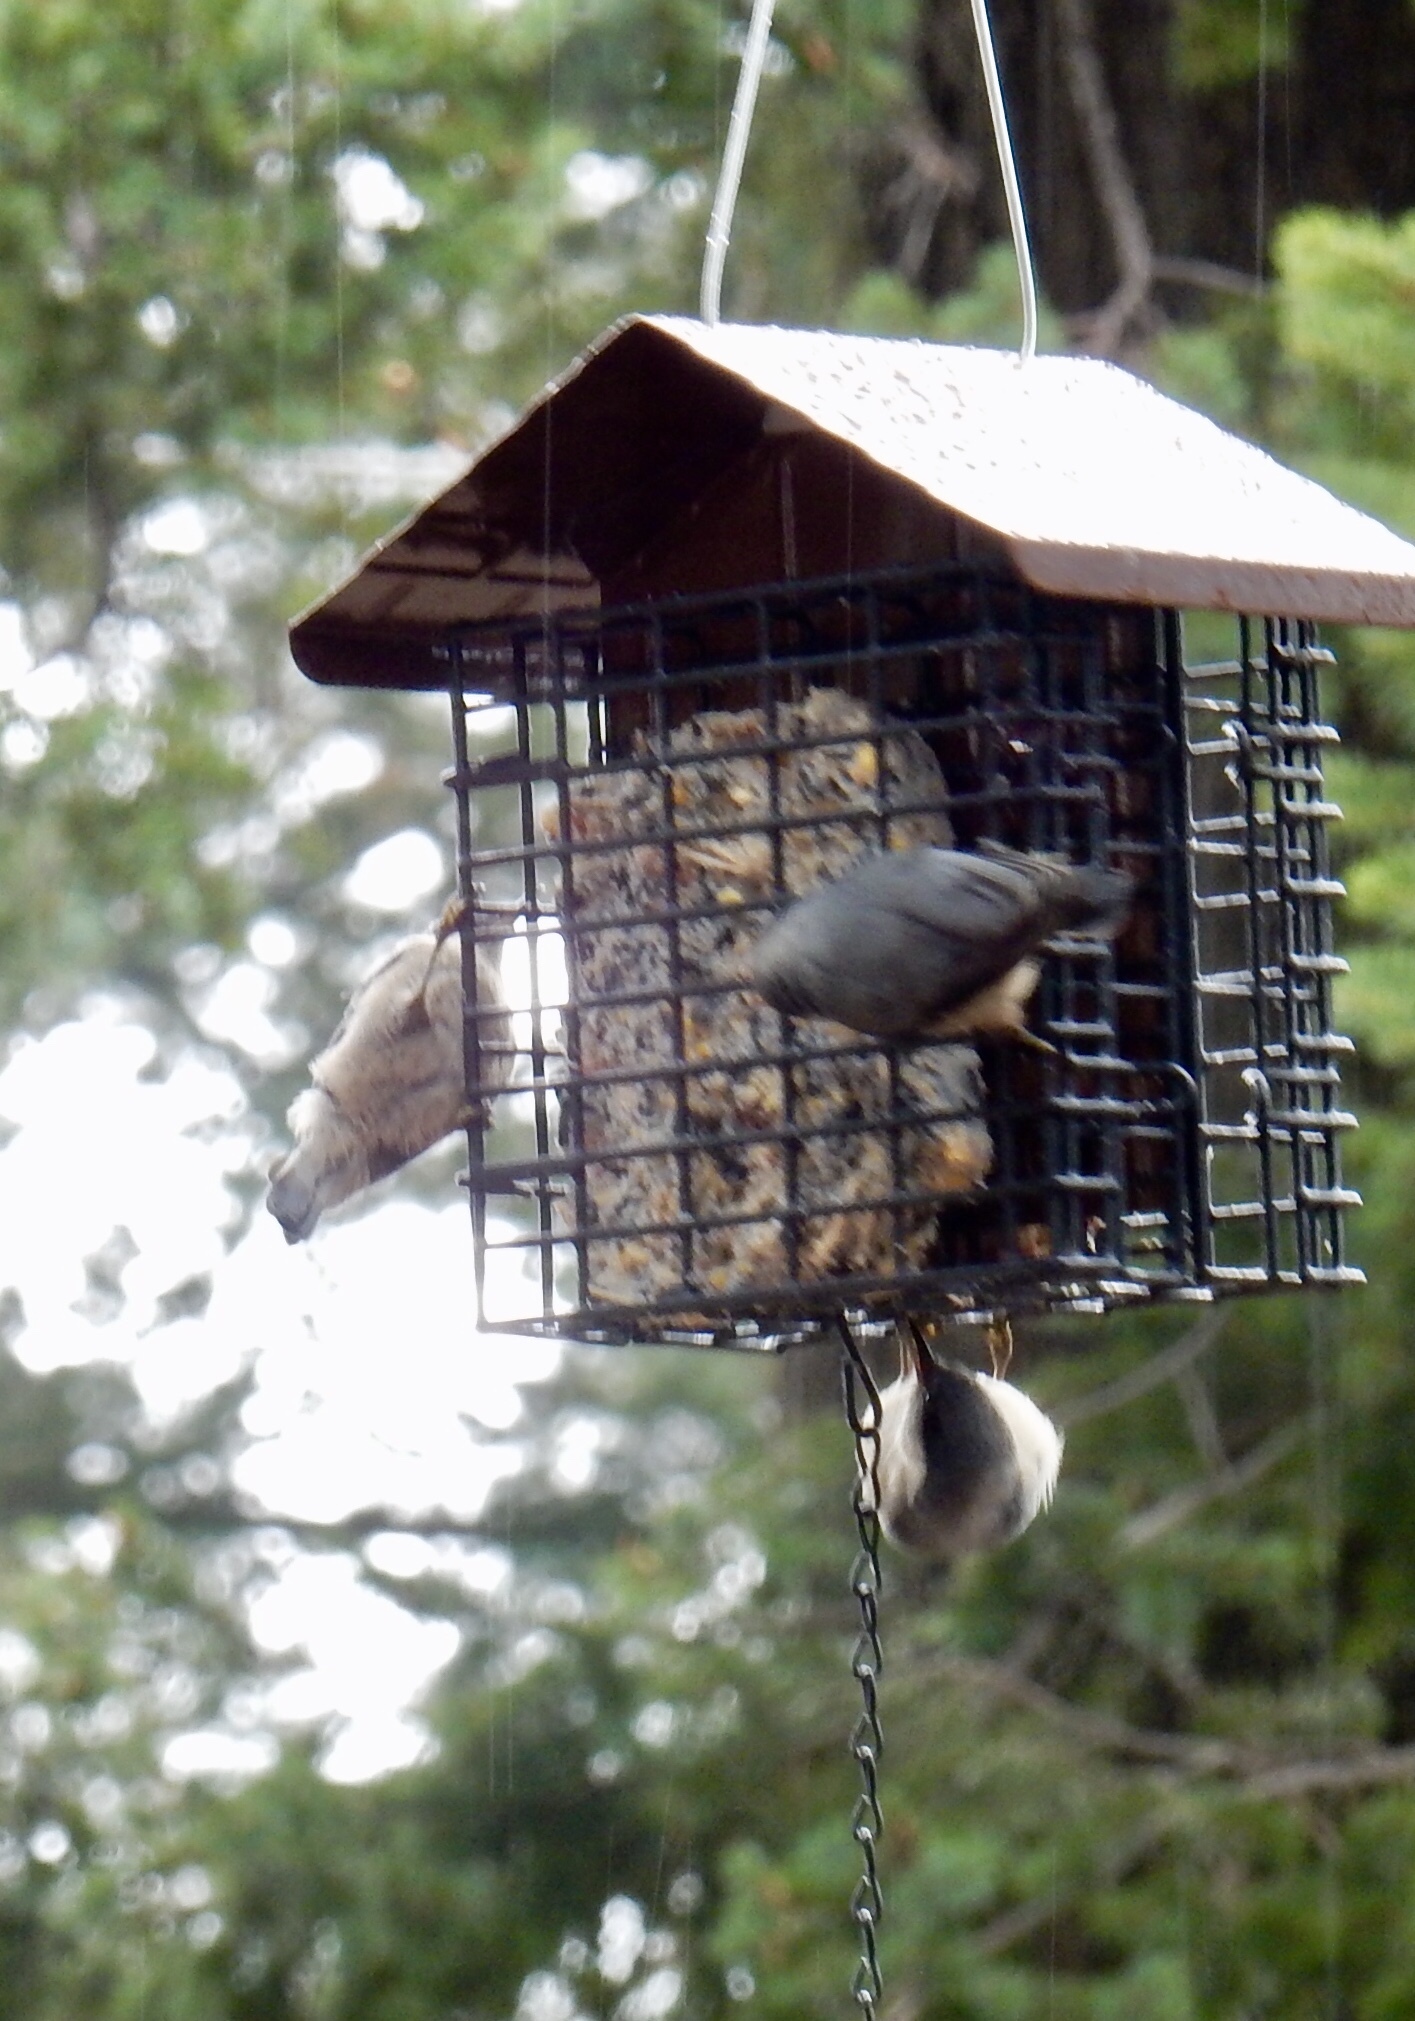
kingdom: Animalia
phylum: Chordata
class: Aves
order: Passeriformes
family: Sittidae
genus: Sitta
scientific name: Sitta pygmaea
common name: Pygmy nuthatch
